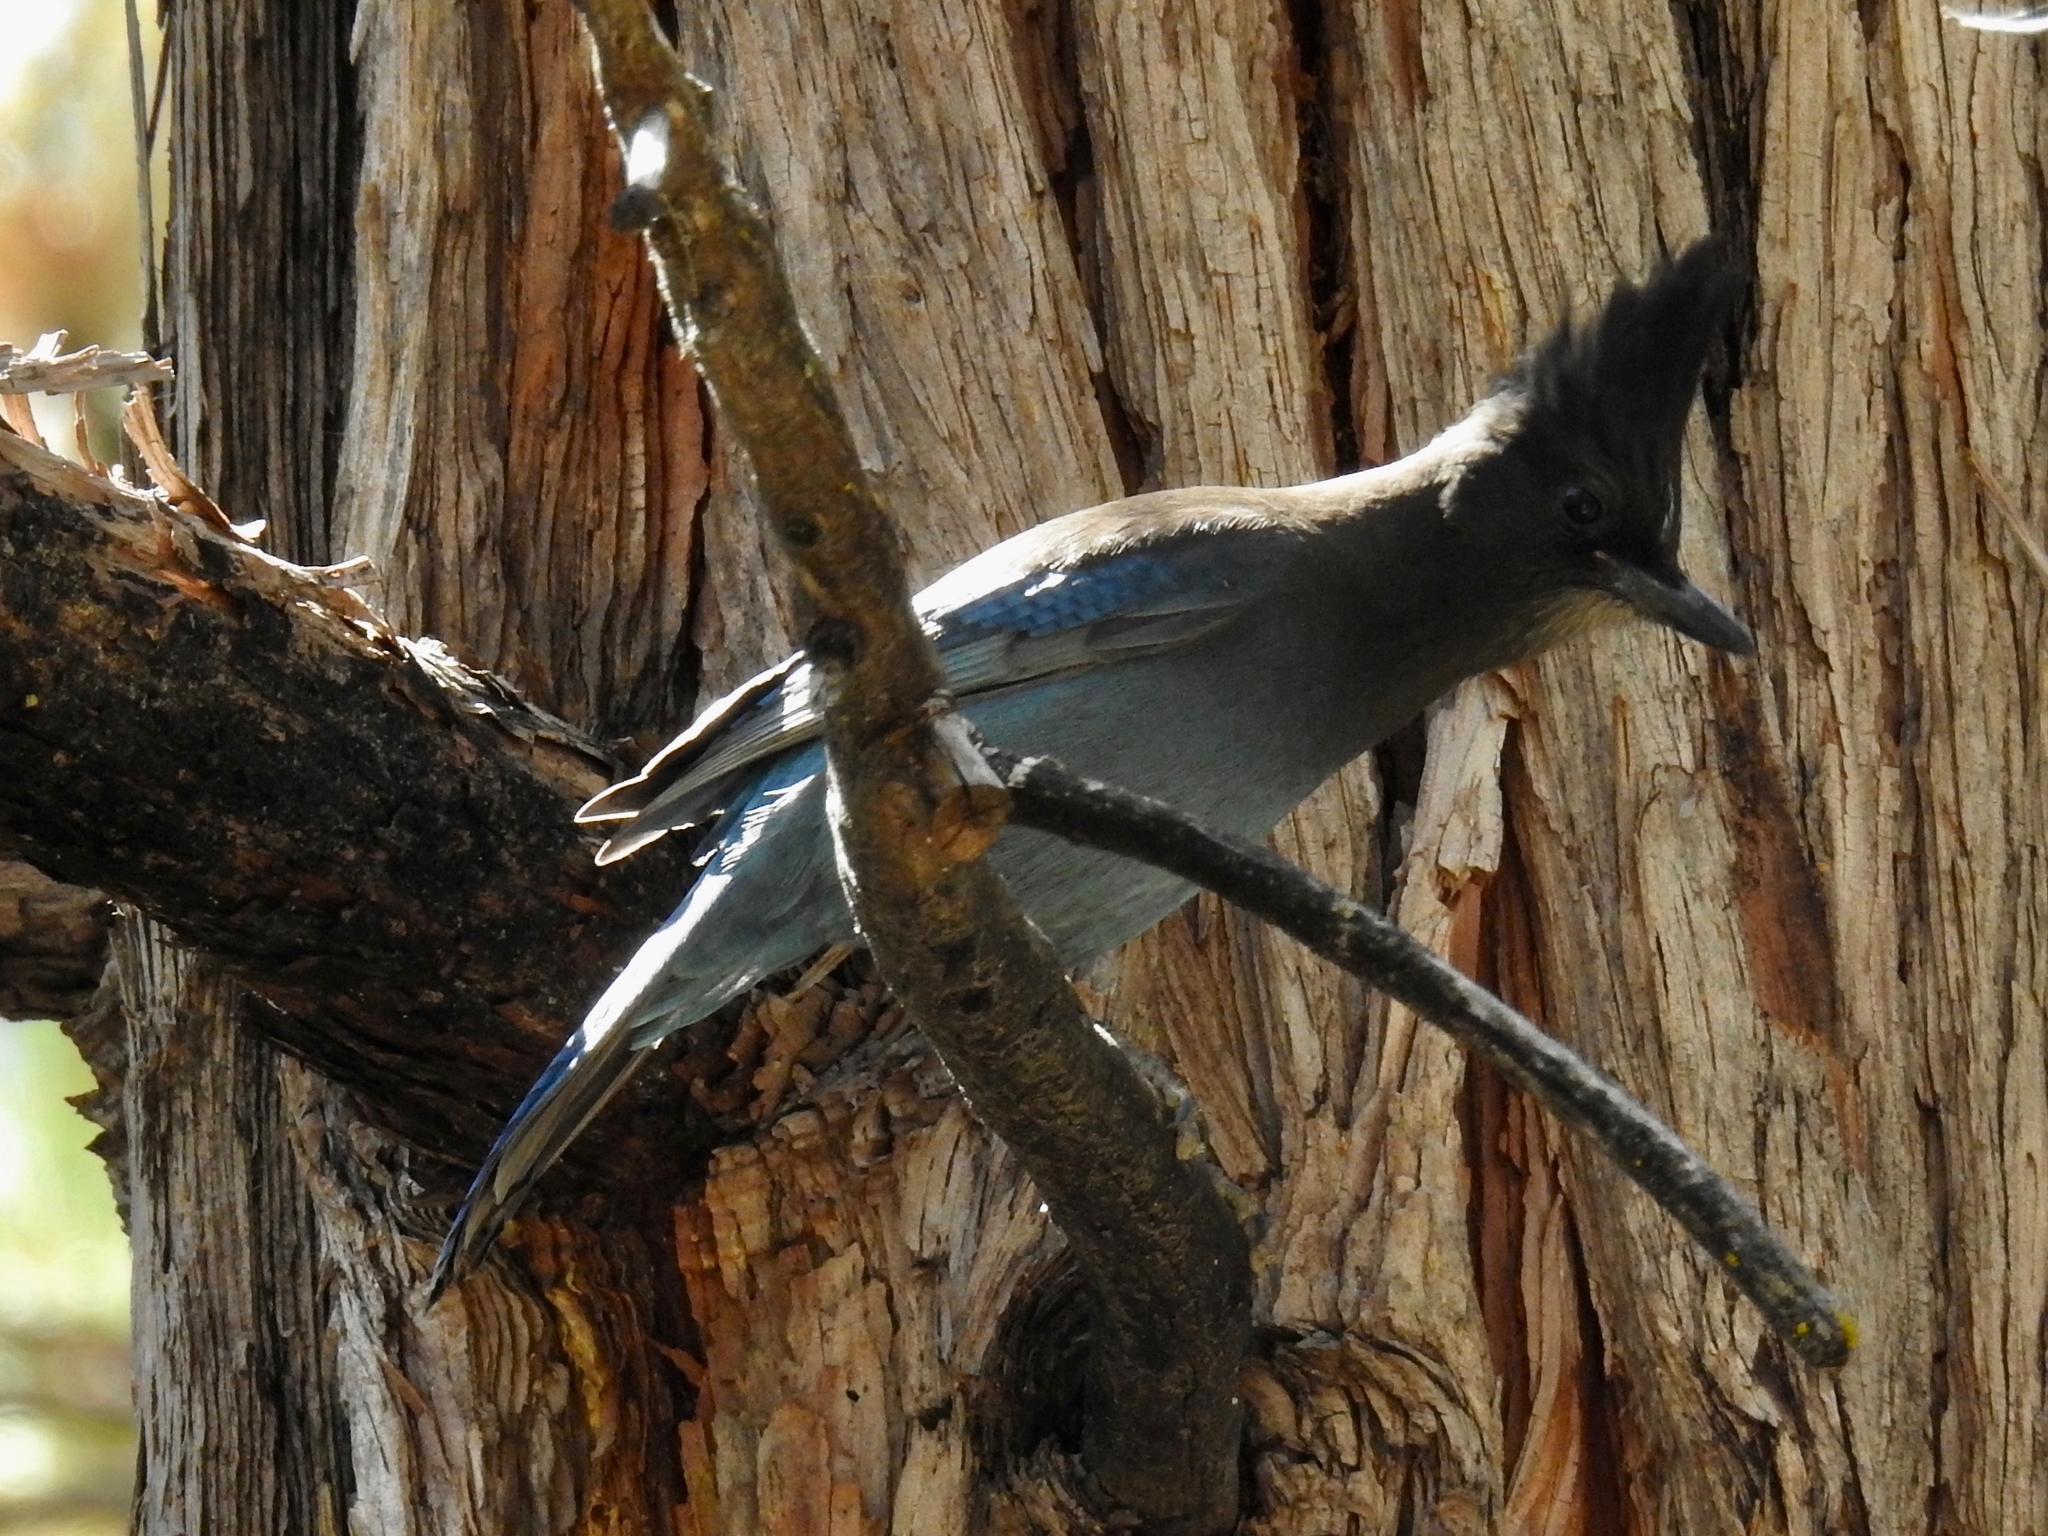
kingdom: Animalia
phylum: Chordata
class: Aves
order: Passeriformes
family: Corvidae
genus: Cyanocitta
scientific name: Cyanocitta stelleri
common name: Steller's jay
